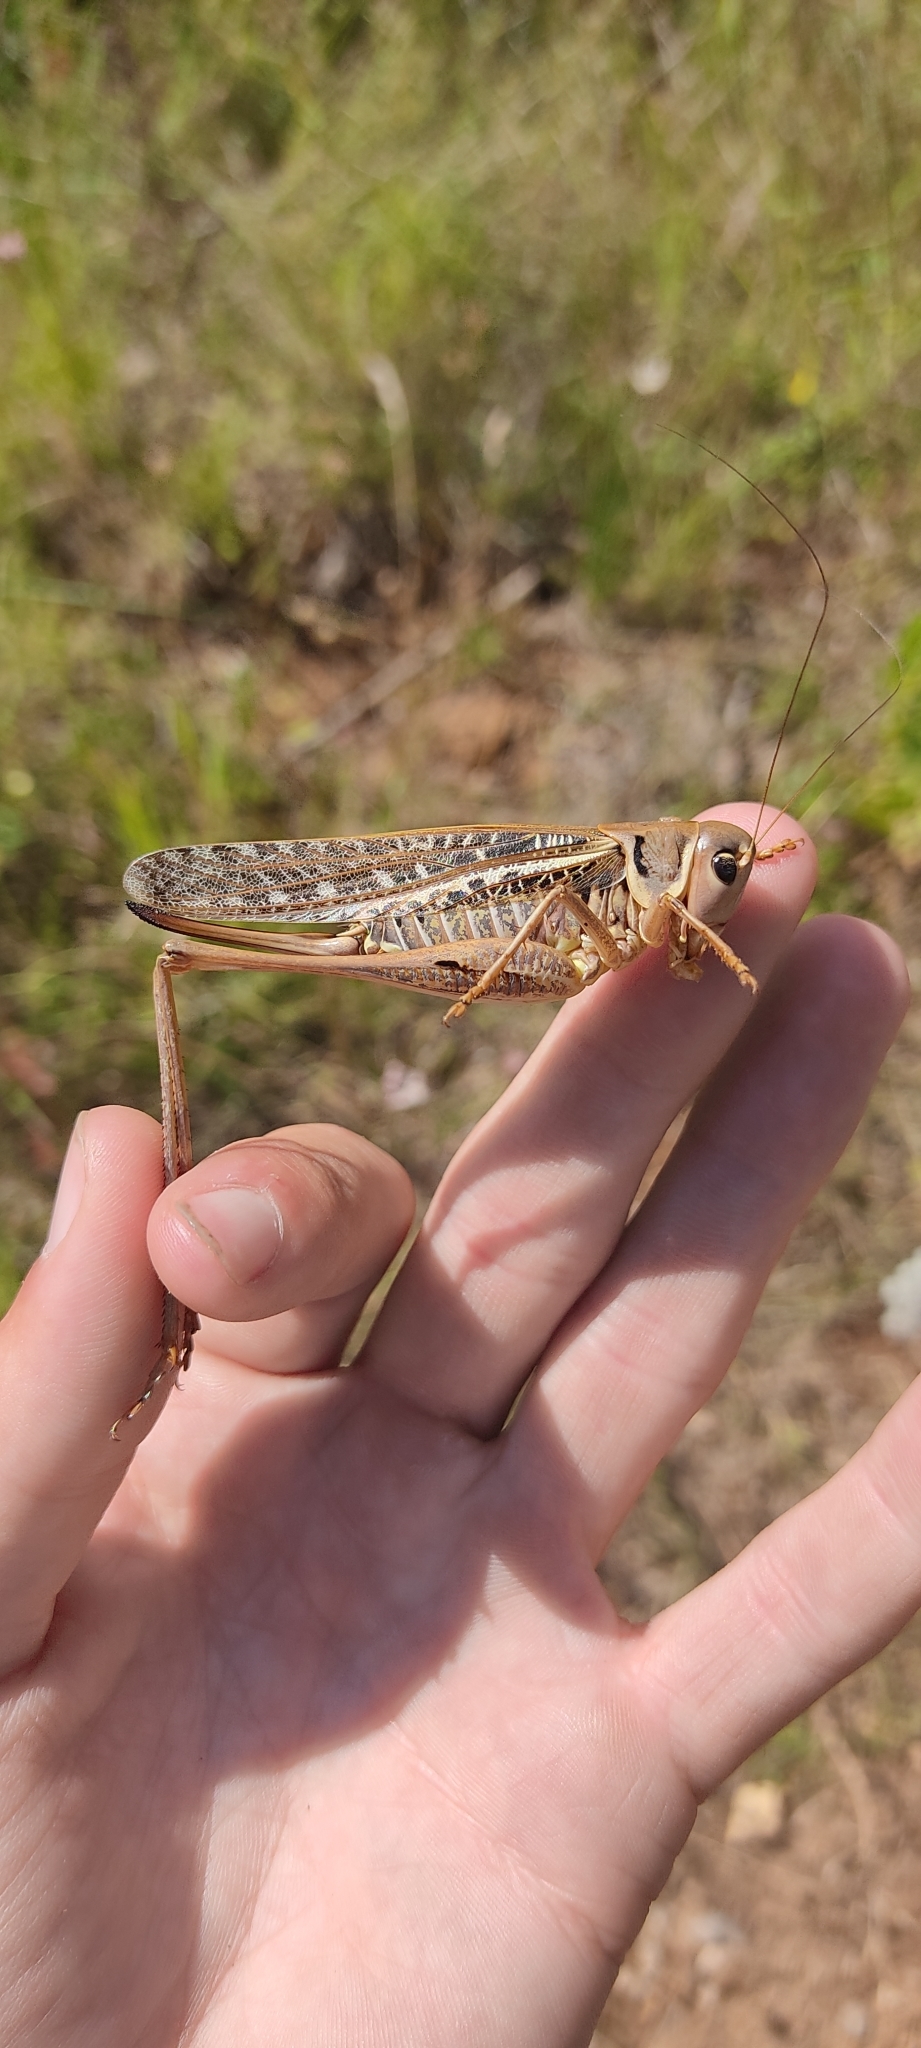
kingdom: Animalia
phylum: Arthropoda
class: Insecta
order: Orthoptera
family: Tettigoniidae
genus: Decticus
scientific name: Decticus albifrons
